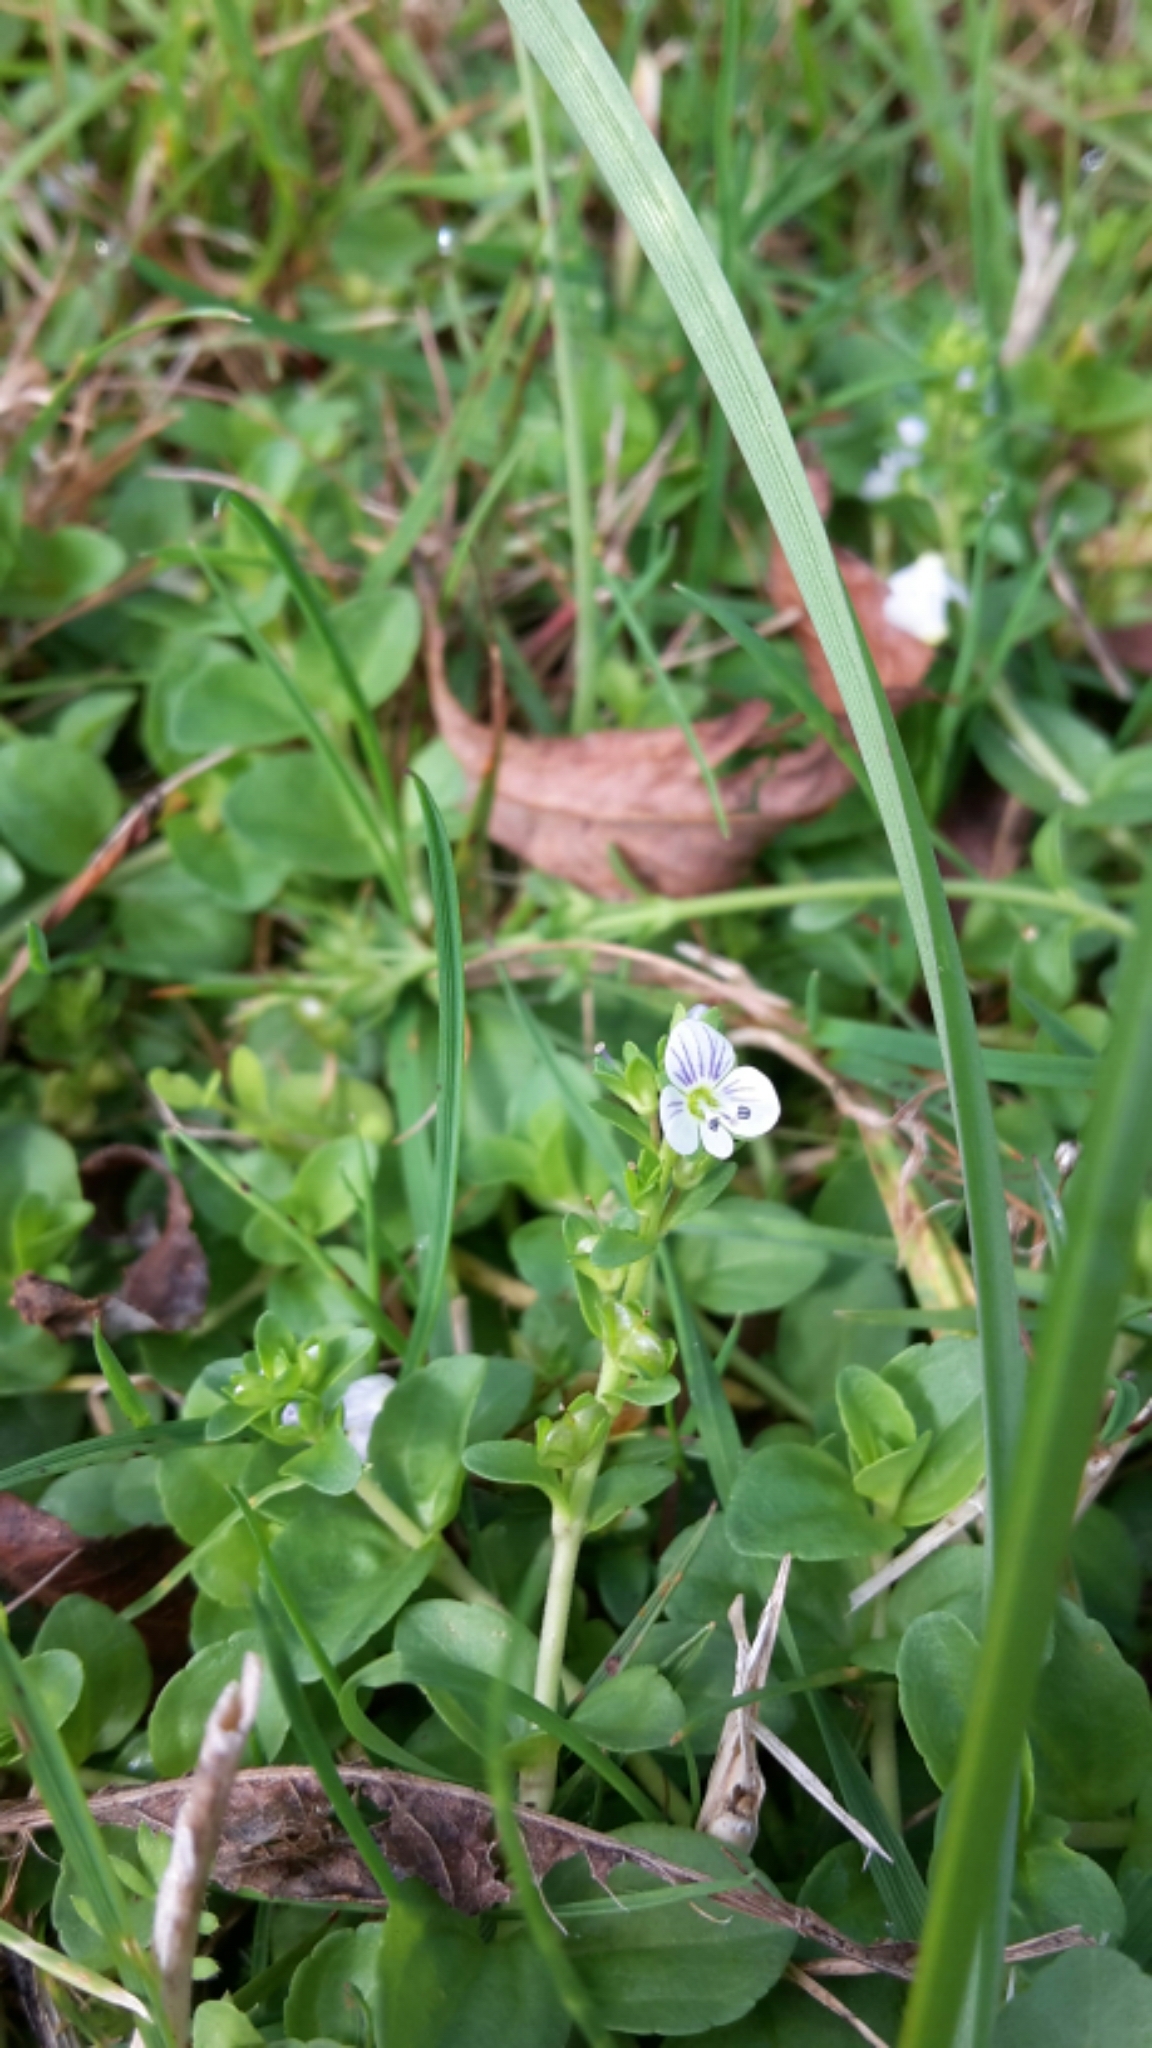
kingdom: Plantae
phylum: Tracheophyta
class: Magnoliopsida
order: Lamiales
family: Plantaginaceae
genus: Veronica
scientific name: Veronica serpyllifolia
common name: Thyme-leaved speedwell
